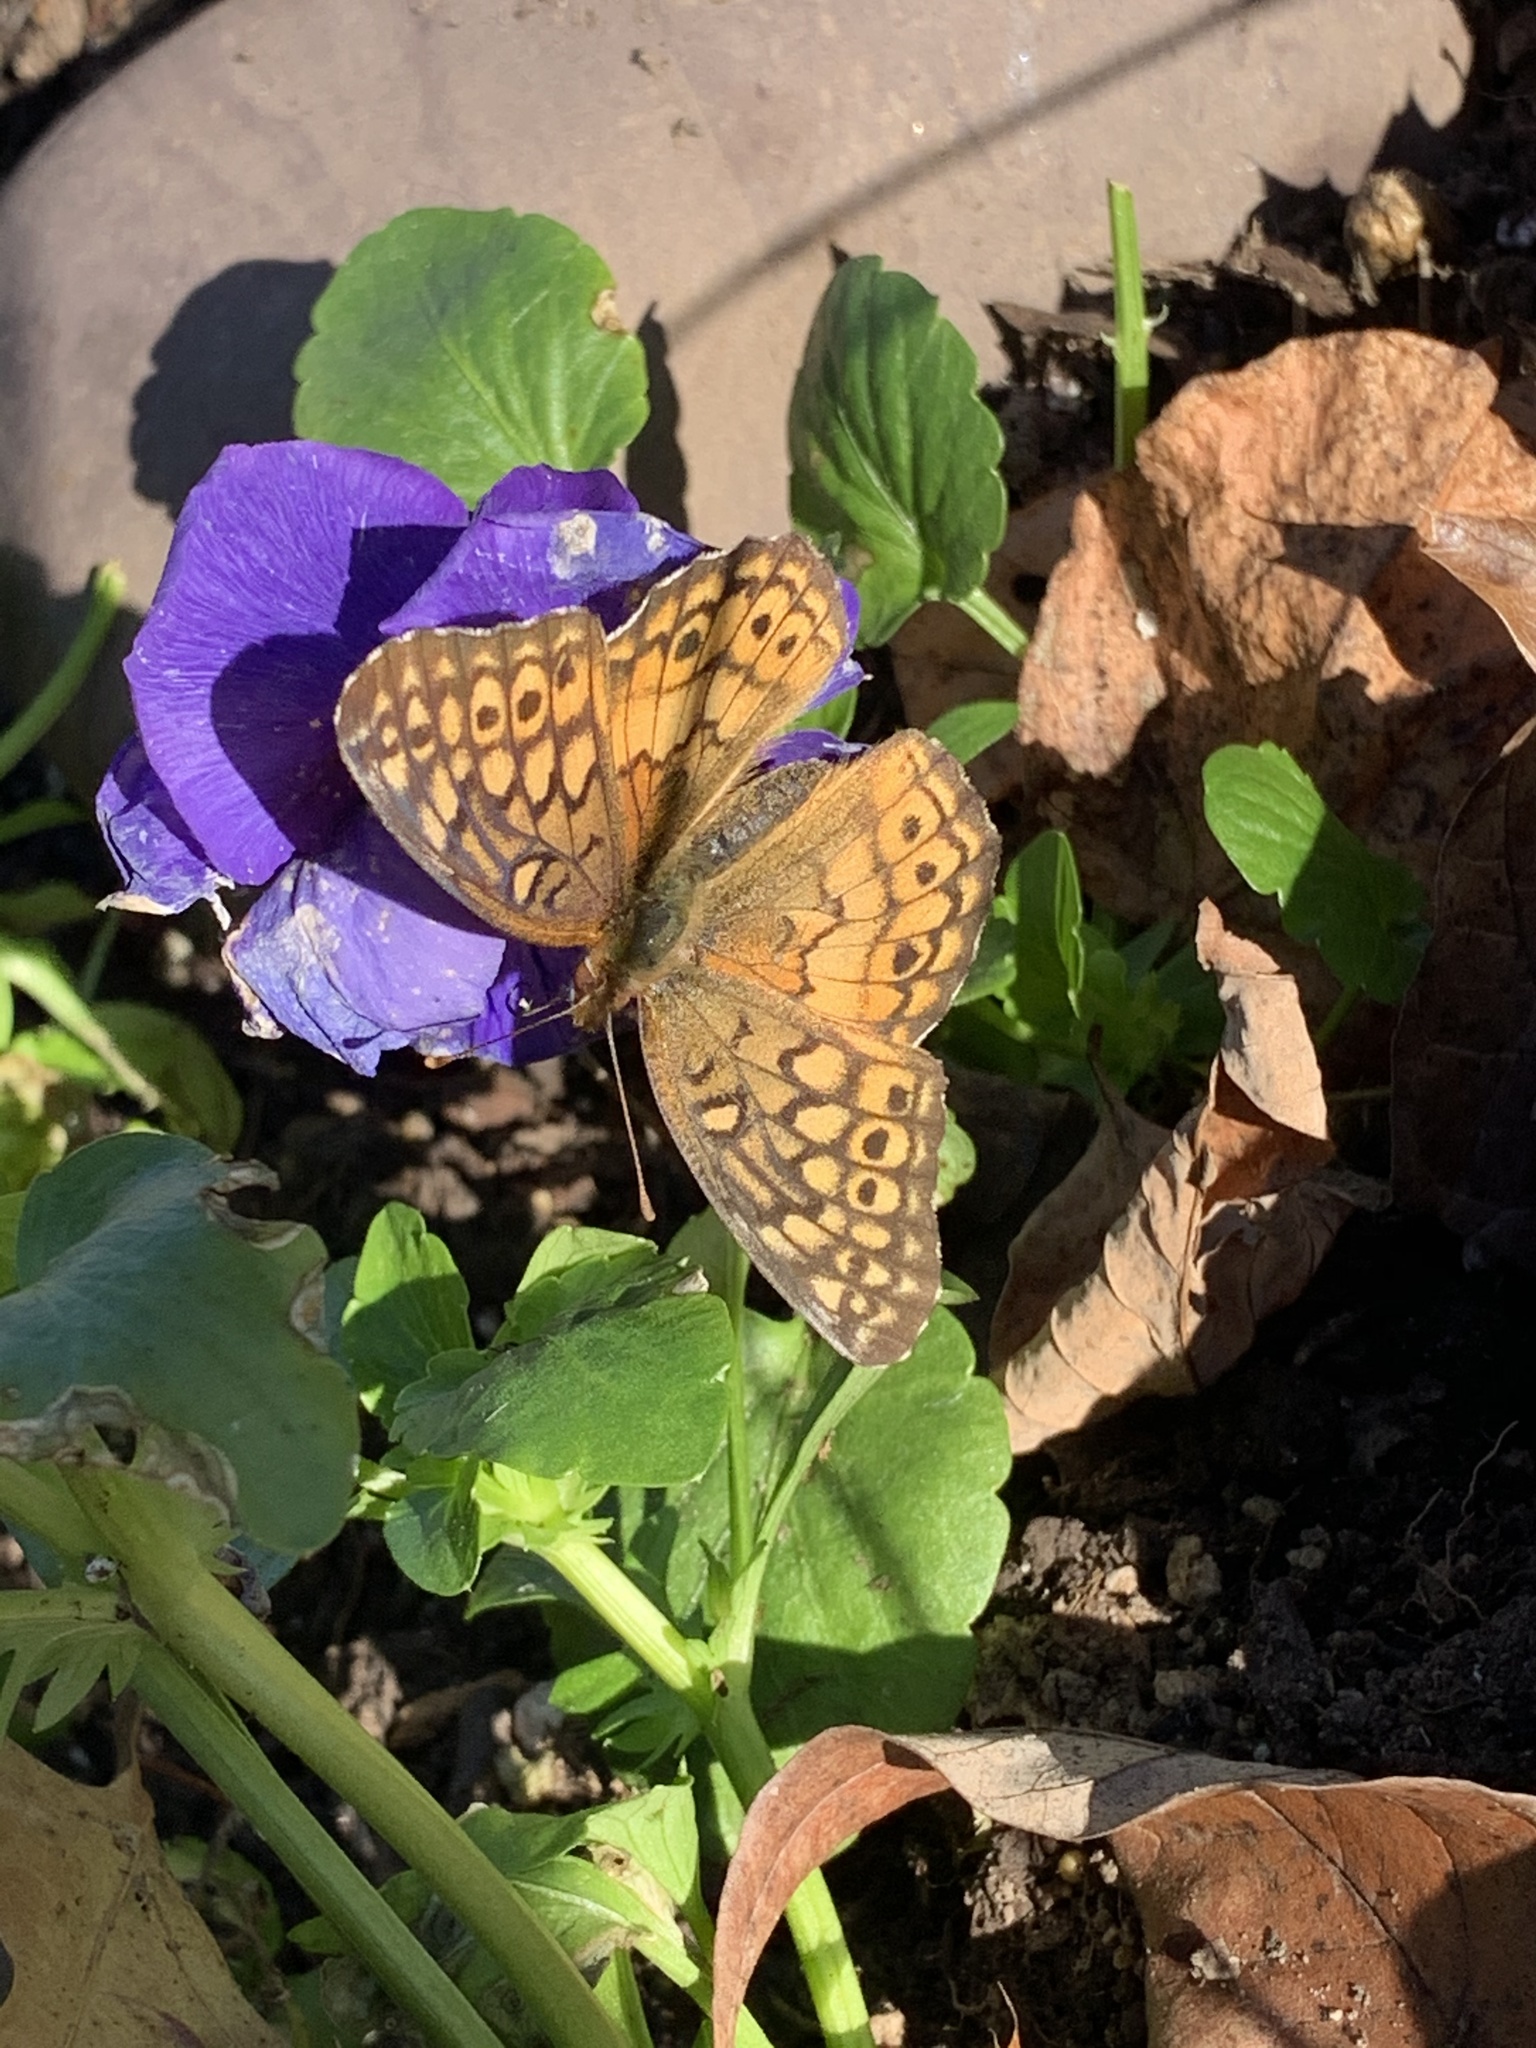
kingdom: Animalia
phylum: Arthropoda
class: Insecta
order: Lepidoptera
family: Nymphalidae
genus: Euptoieta
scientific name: Euptoieta claudia
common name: Variegated fritillary
